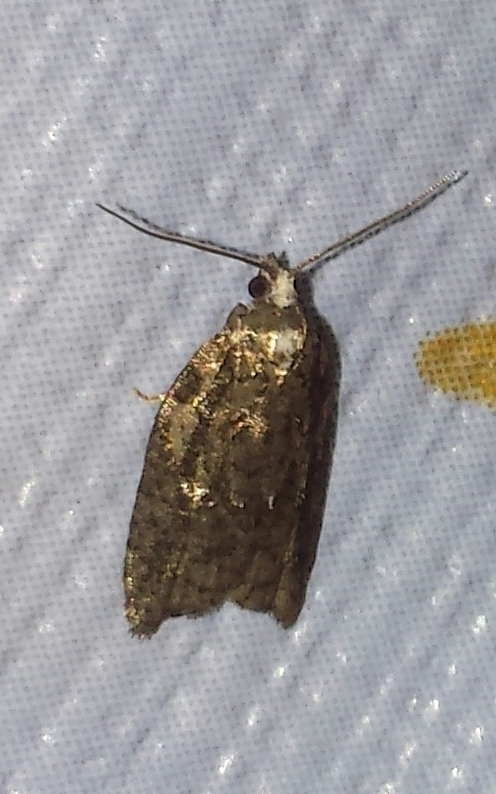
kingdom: Animalia
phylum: Arthropoda
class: Insecta
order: Lepidoptera
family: Tortricidae
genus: Acleris
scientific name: Acleris variana
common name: Eastern black-headed budworm moth
